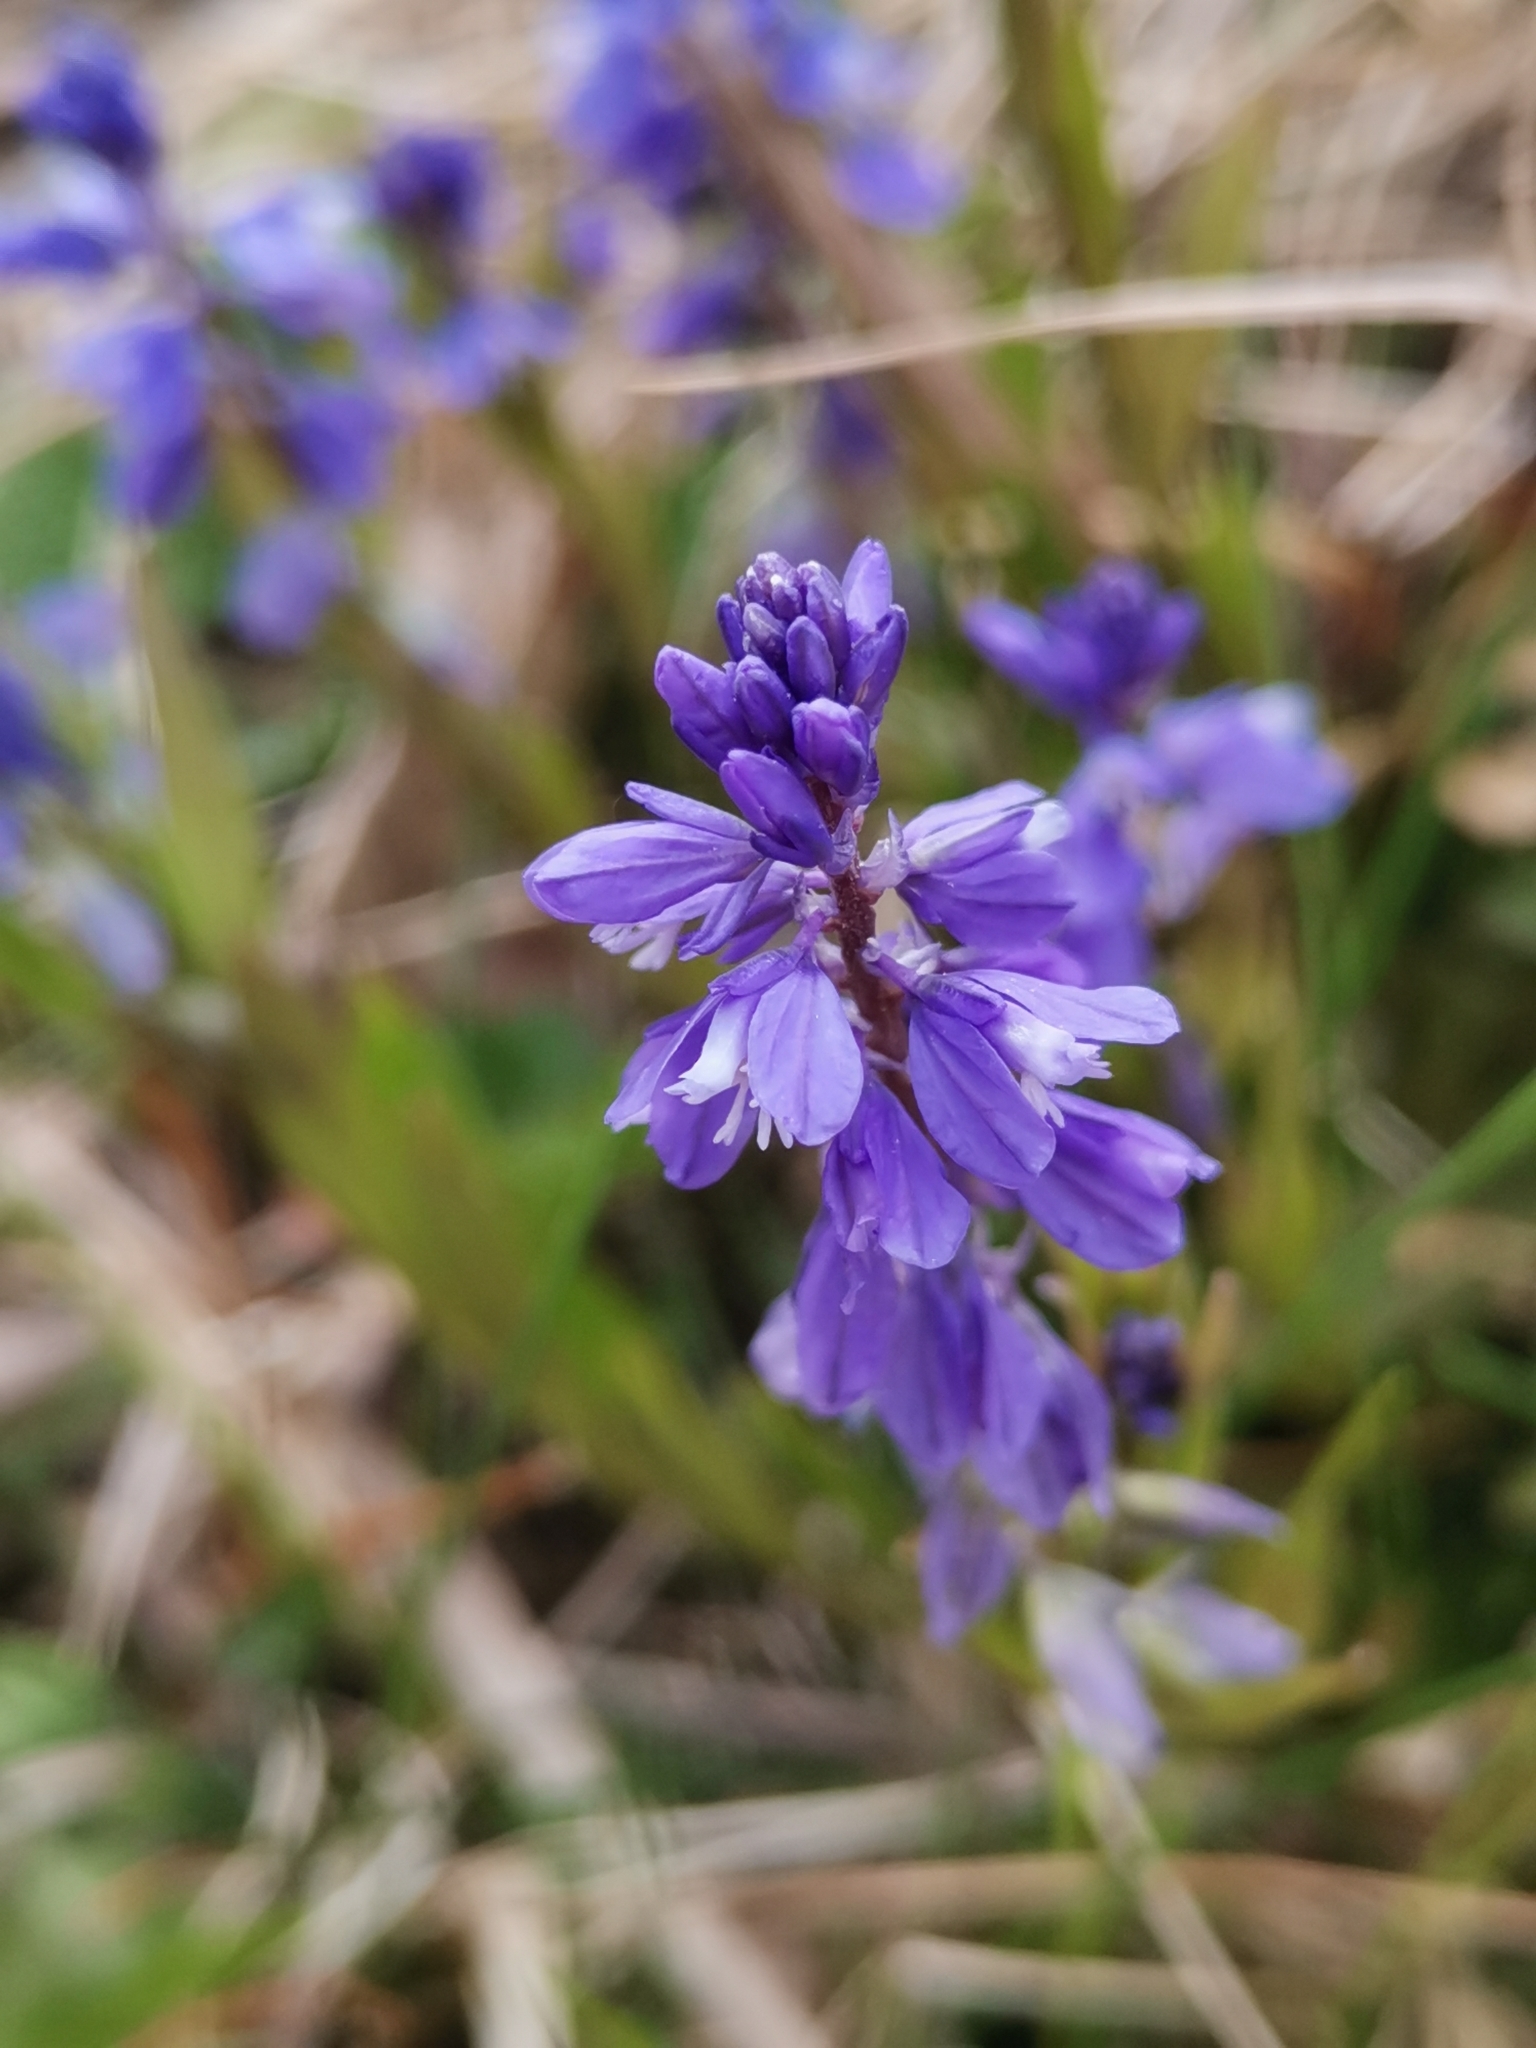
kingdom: Plantae
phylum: Tracheophyta
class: Magnoliopsida
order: Fabales
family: Polygalaceae
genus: Polygala
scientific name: Polygala amara
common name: Milkwort
